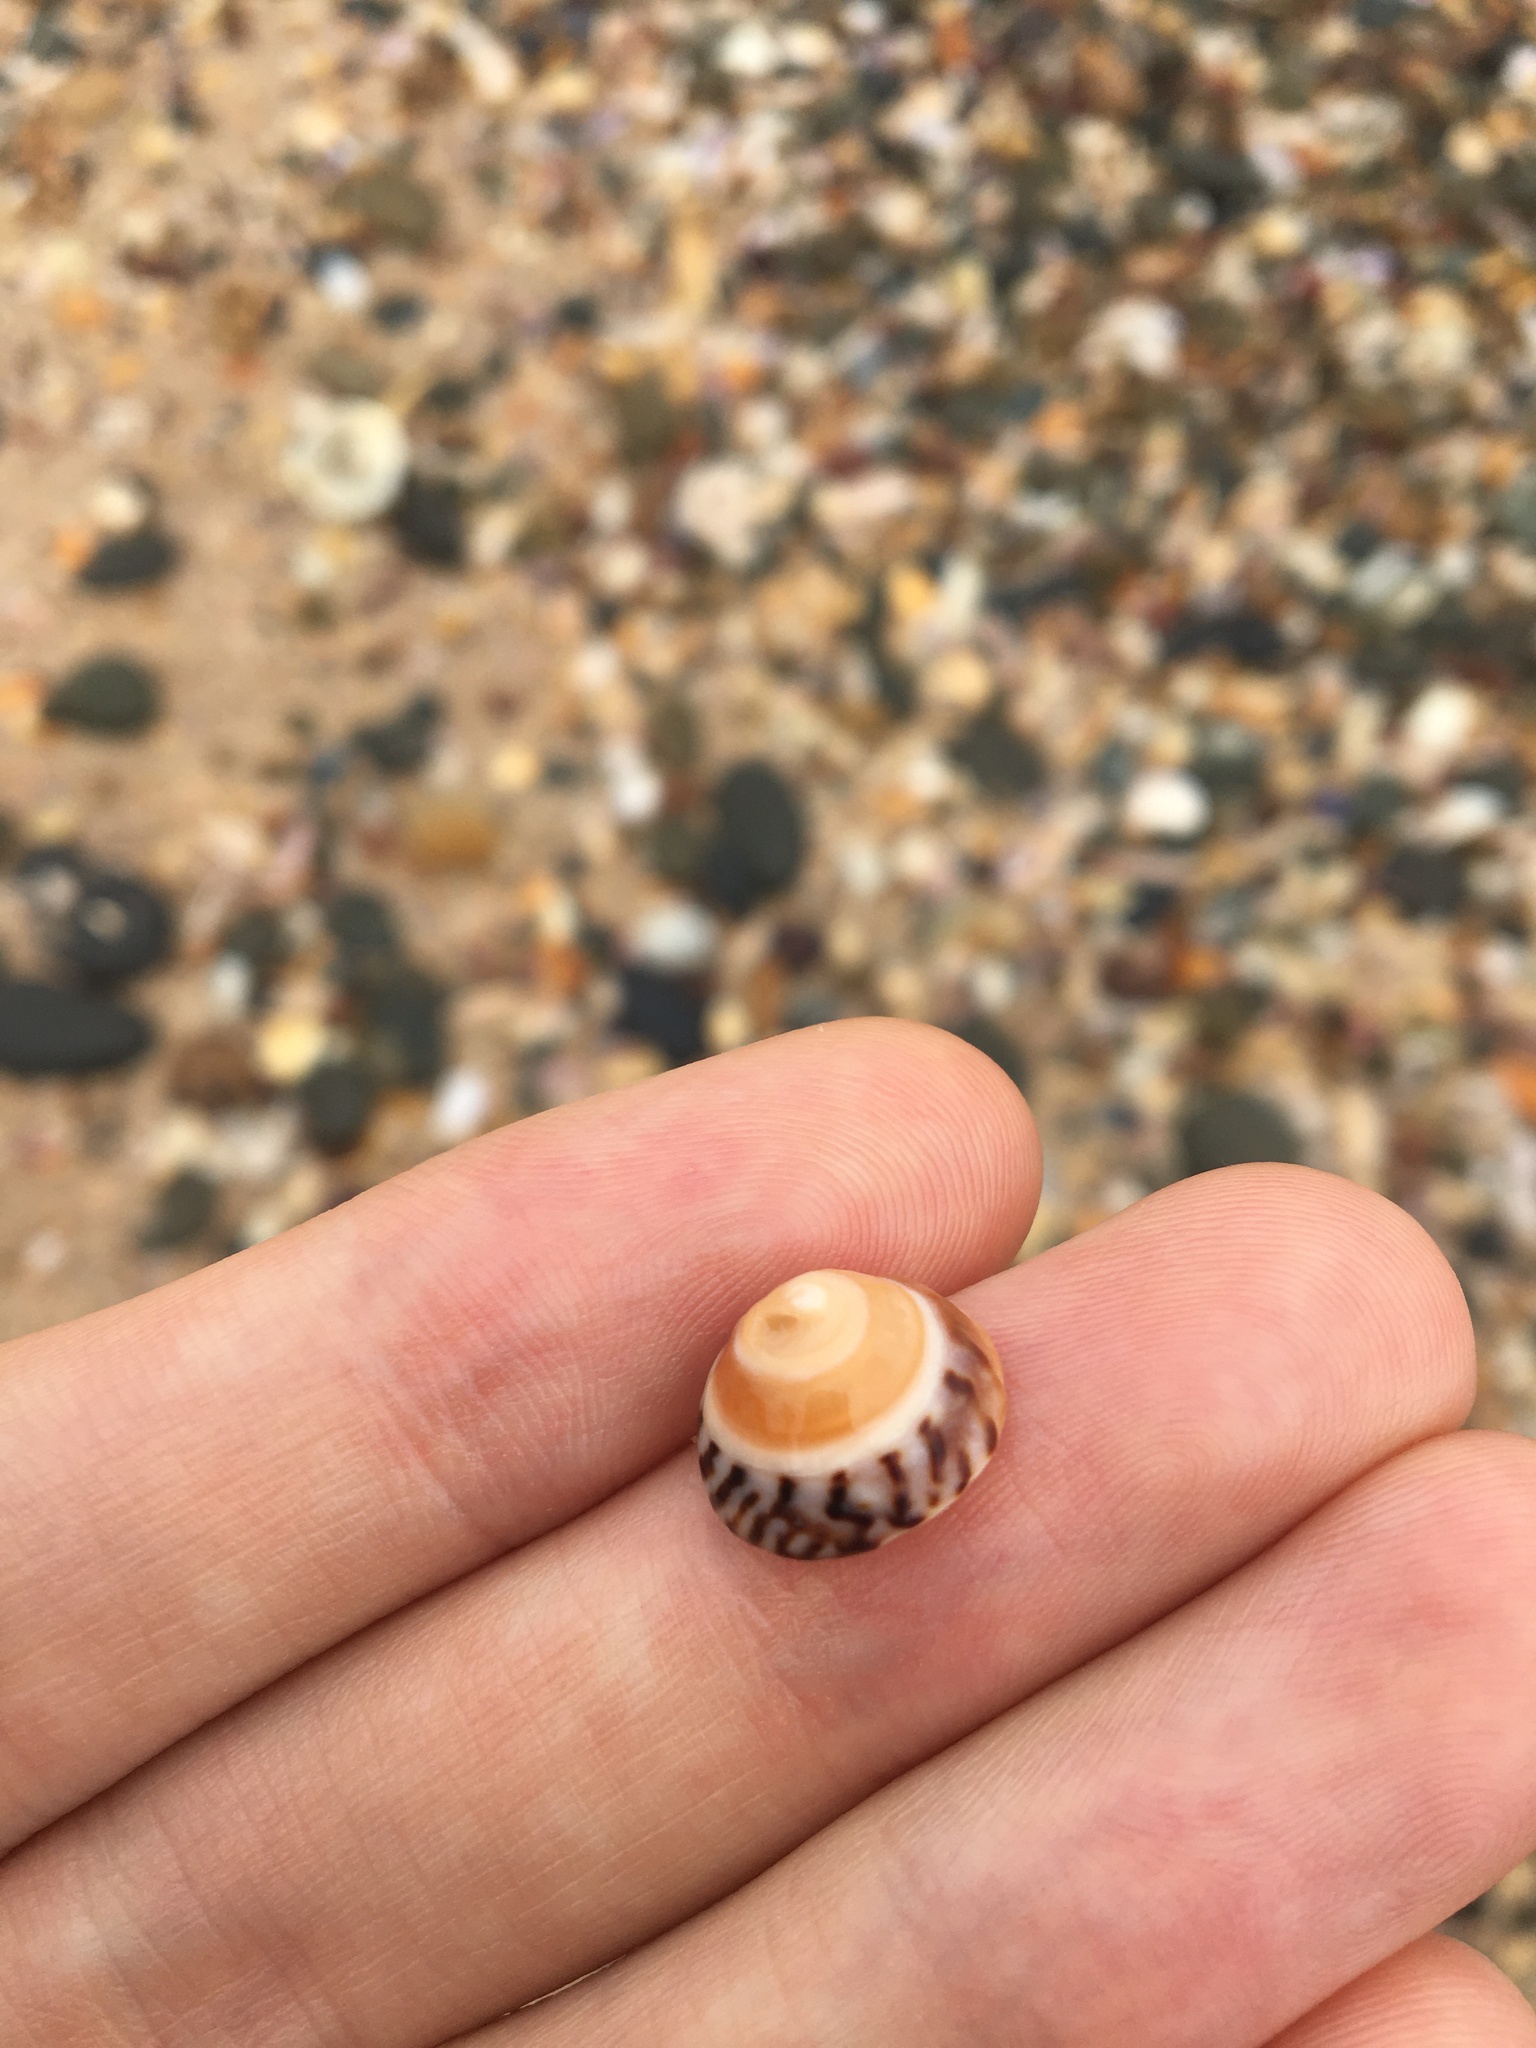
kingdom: Animalia
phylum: Mollusca
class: Gastropoda
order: Littorinimorpha
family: Littorinidae
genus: Bembicium
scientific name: Bembicium nanum
